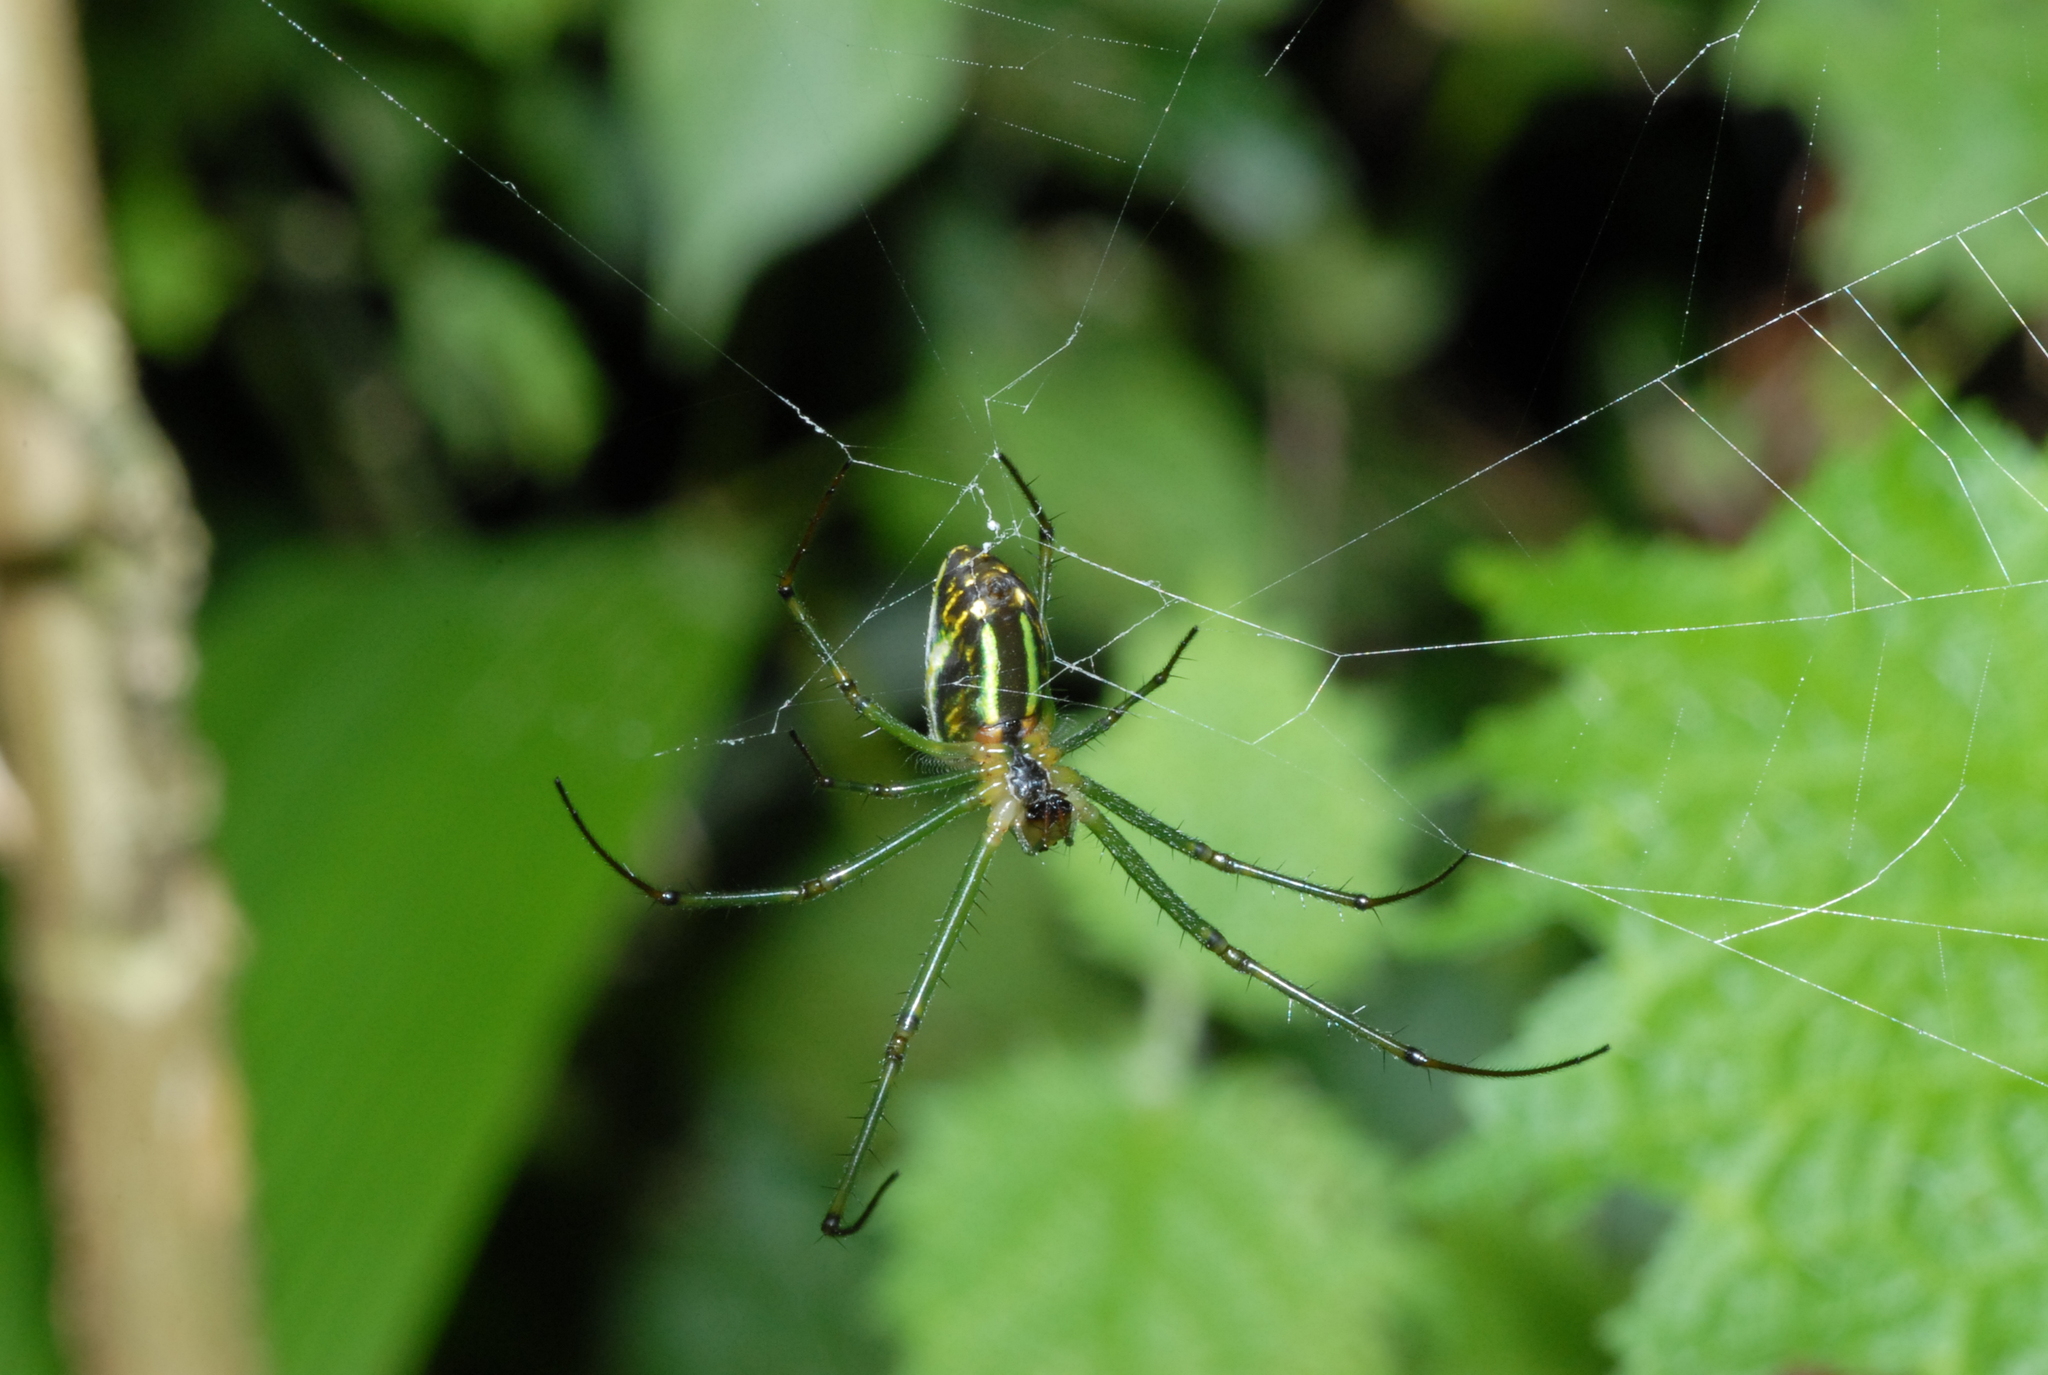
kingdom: Animalia
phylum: Arthropoda
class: Arachnida
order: Araneae
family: Tetragnathidae
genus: Leucauge
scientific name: Leucauge celebesiana
